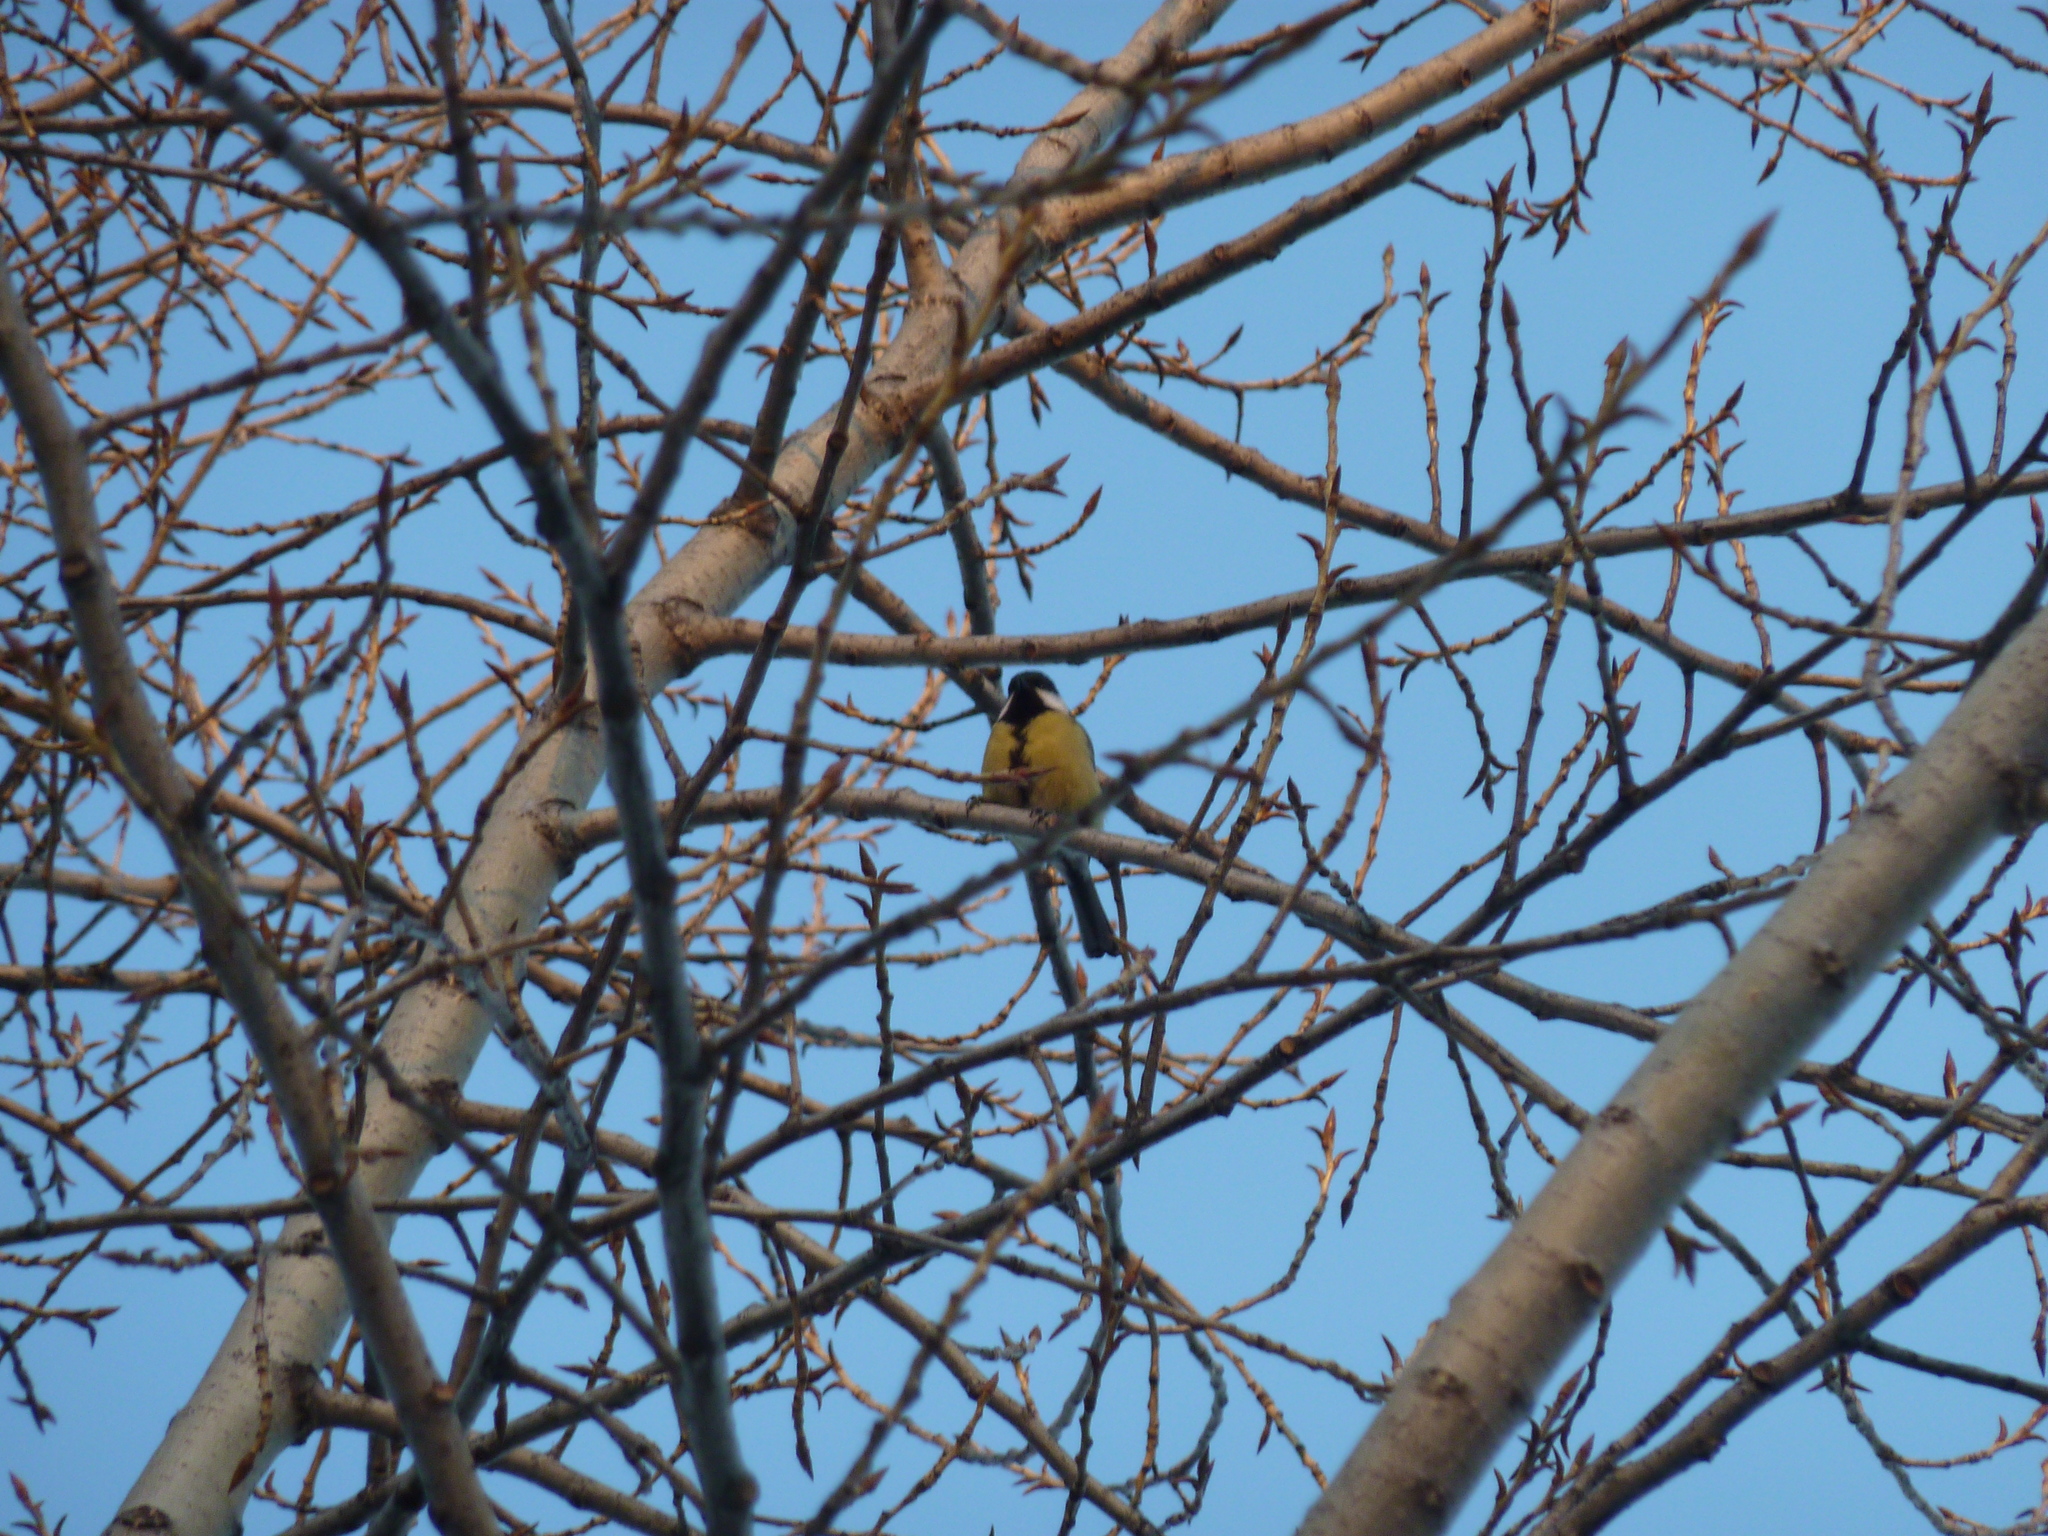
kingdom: Animalia
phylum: Chordata
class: Aves
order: Passeriformes
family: Paridae
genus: Parus
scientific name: Parus major
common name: Great tit
